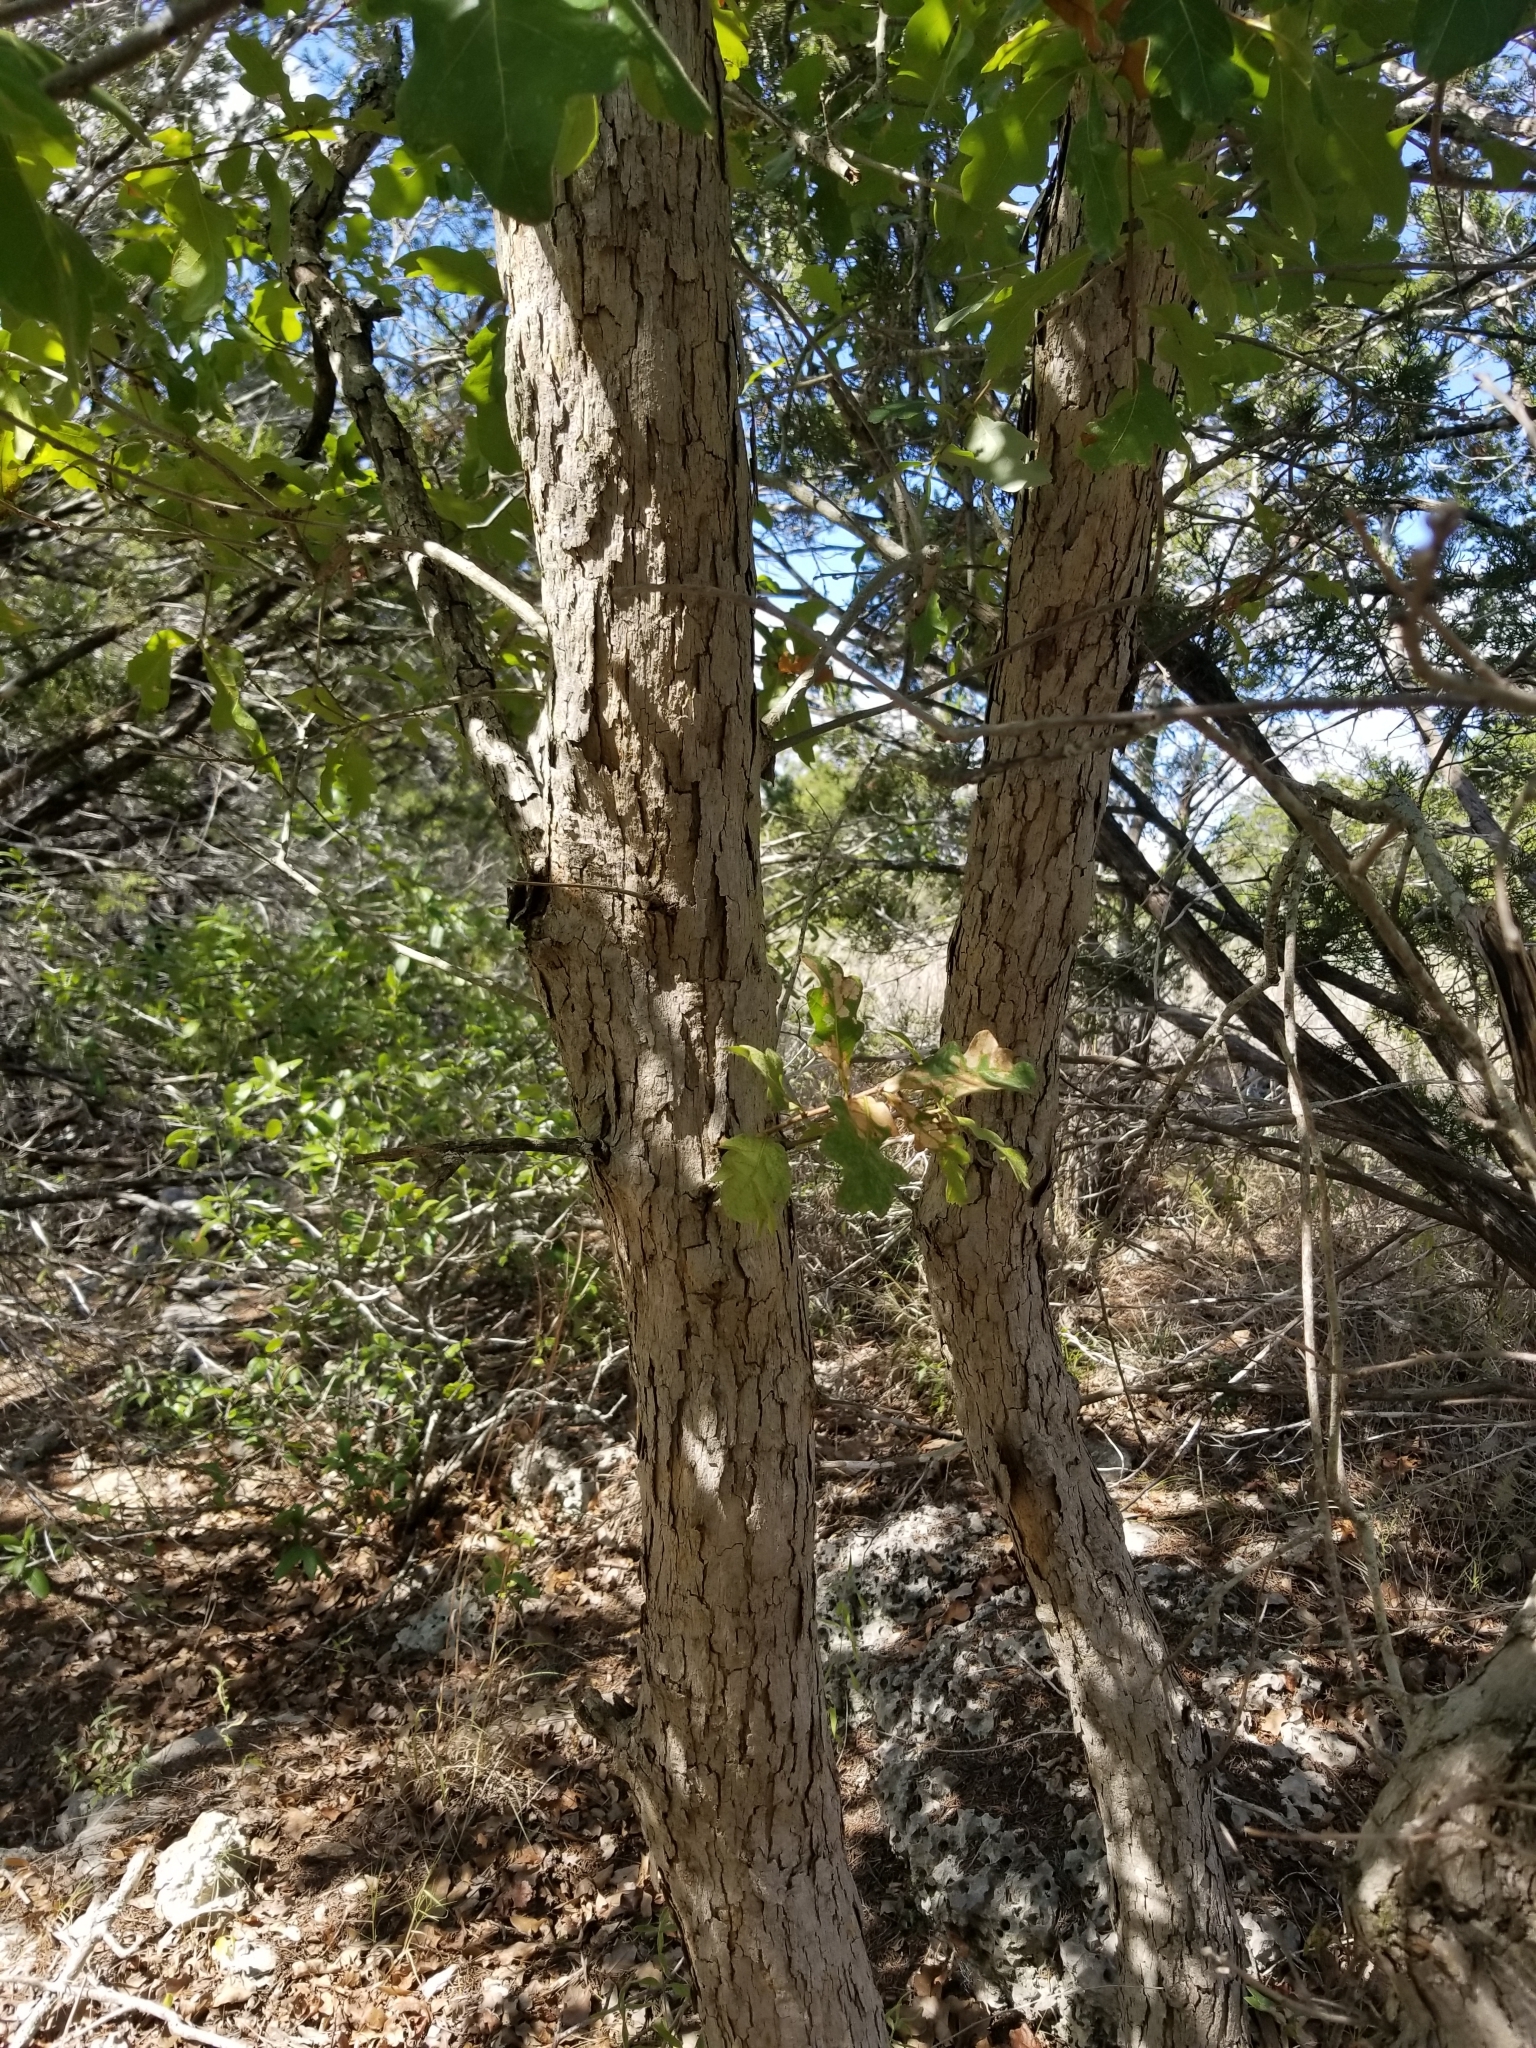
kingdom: Plantae
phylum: Tracheophyta
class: Magnoliopsida
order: Fagales
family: Fagaceae
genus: Quercus
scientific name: Quercus sinuata
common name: Durand oak
